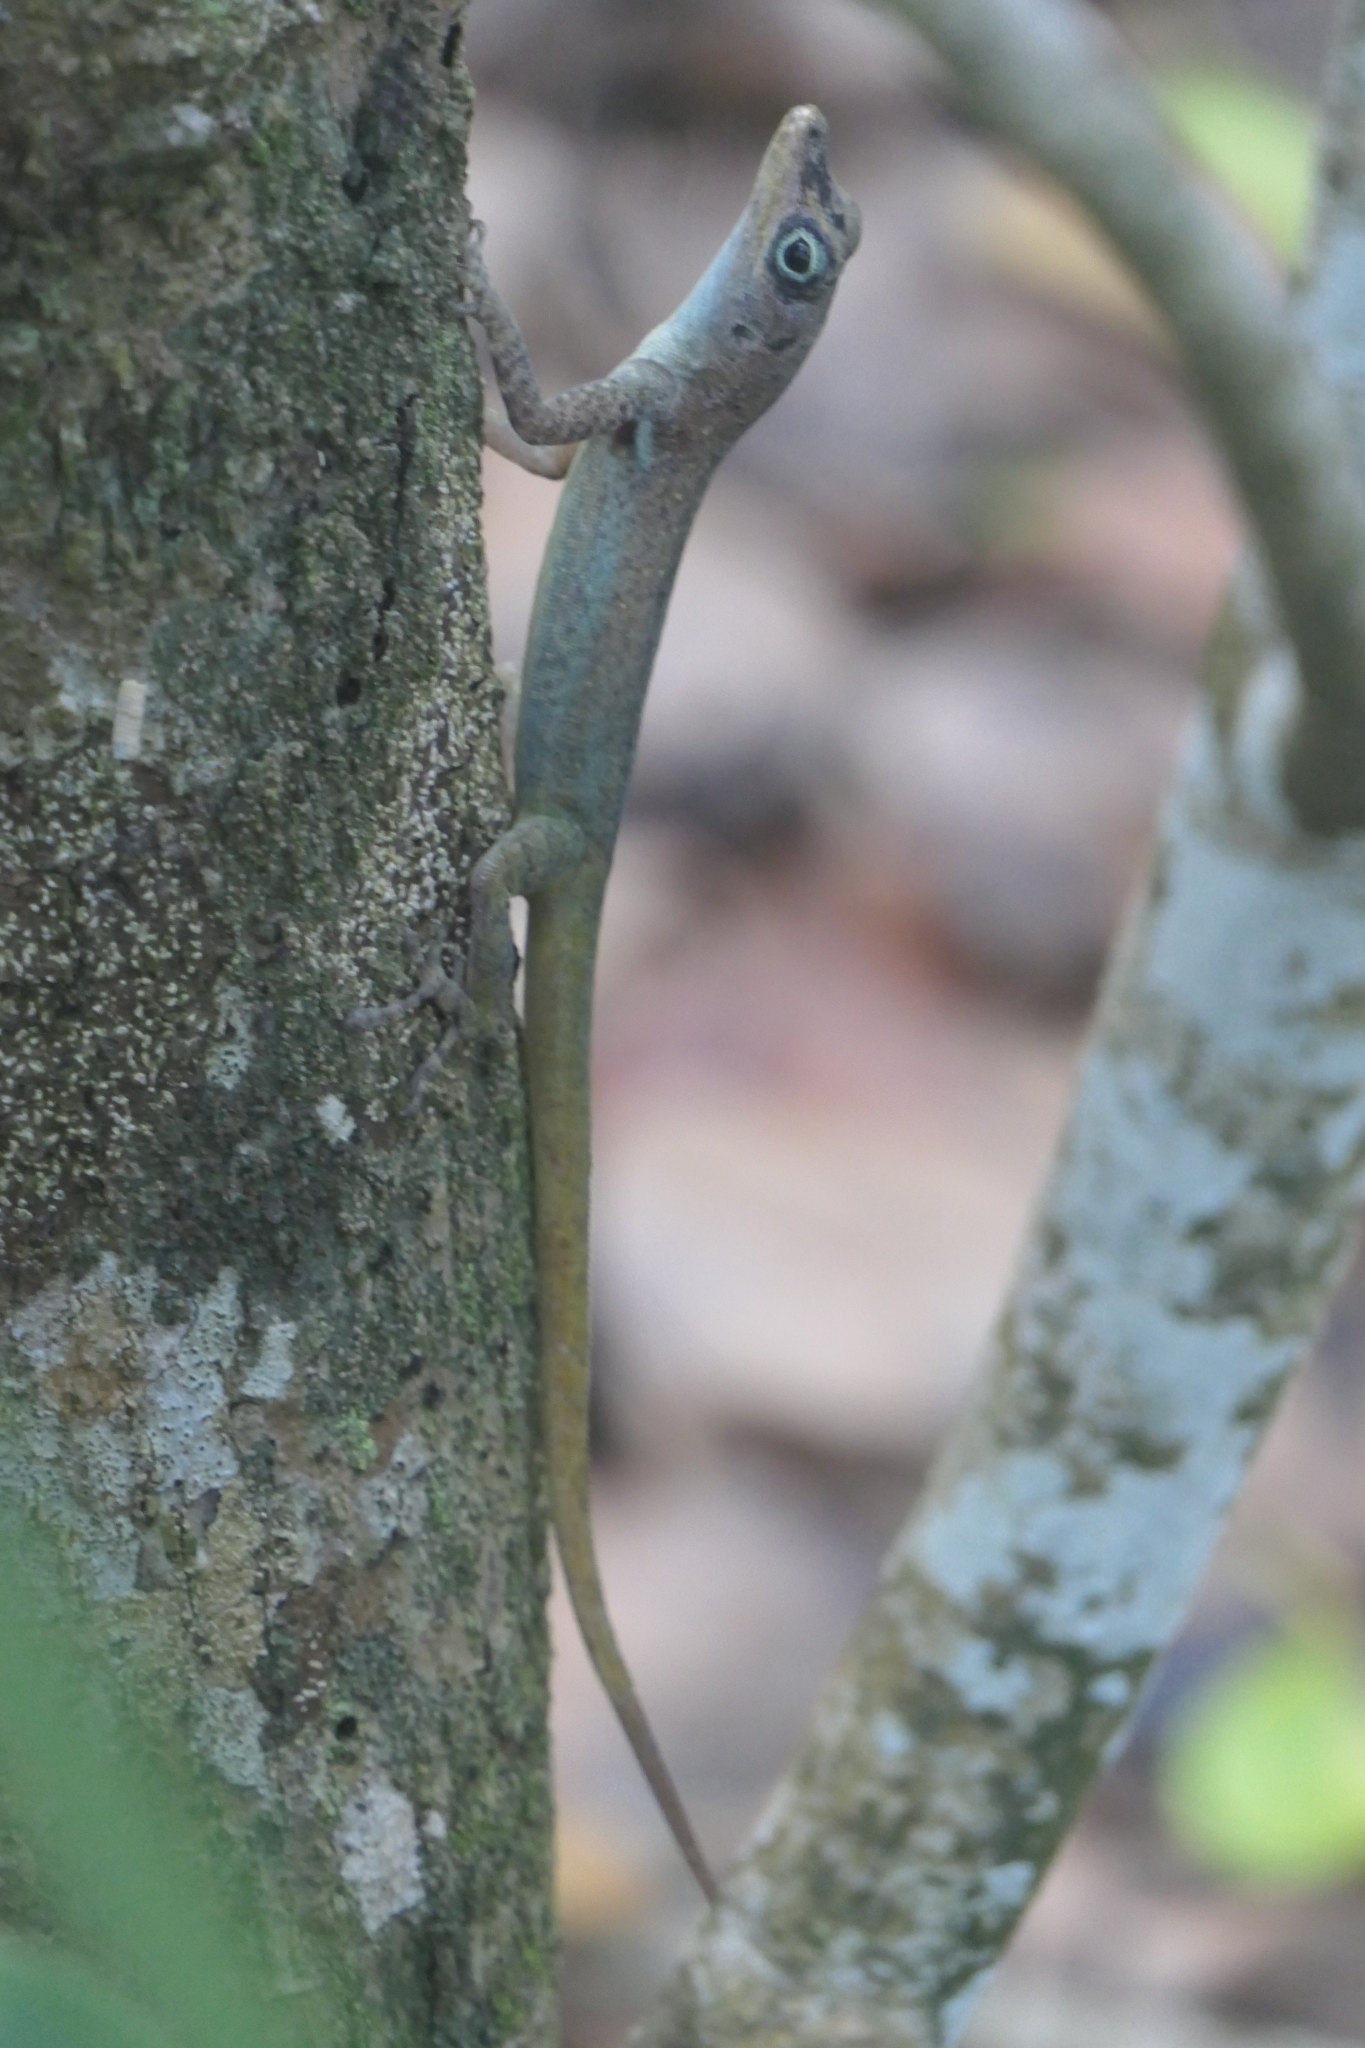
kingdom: Animalia
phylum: Chordata
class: Squamata
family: Dactyloidae
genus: Anolis
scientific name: Anolis roquet
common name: Martinique anole
